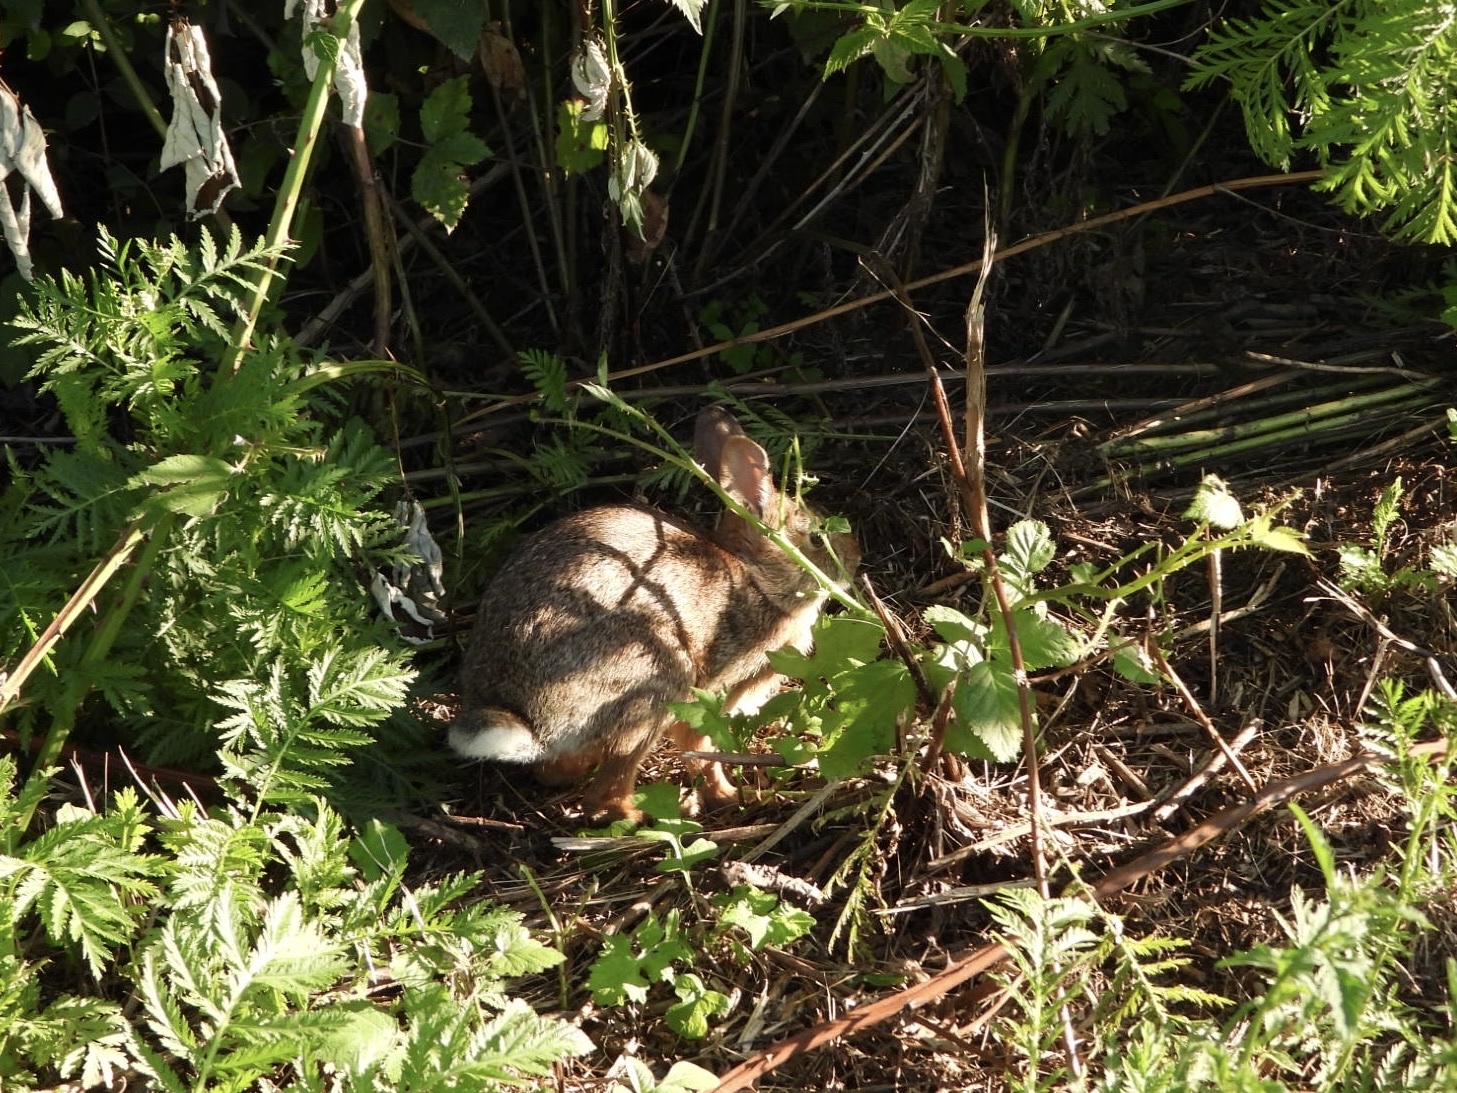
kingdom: Animalia
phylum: Chordata
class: Mammalia
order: Lagomorpha
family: Leporidae
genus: Sylvilagus
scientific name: Sylvilagus floridanus
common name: Eastern cottontail
